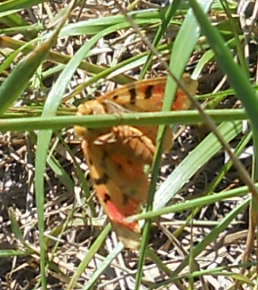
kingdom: Animalia
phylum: Arthropoda
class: Insecta
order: Lepidoptera
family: Erebidae
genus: Rhyparia
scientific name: Rhyparia purpurata
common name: Purple tiger
